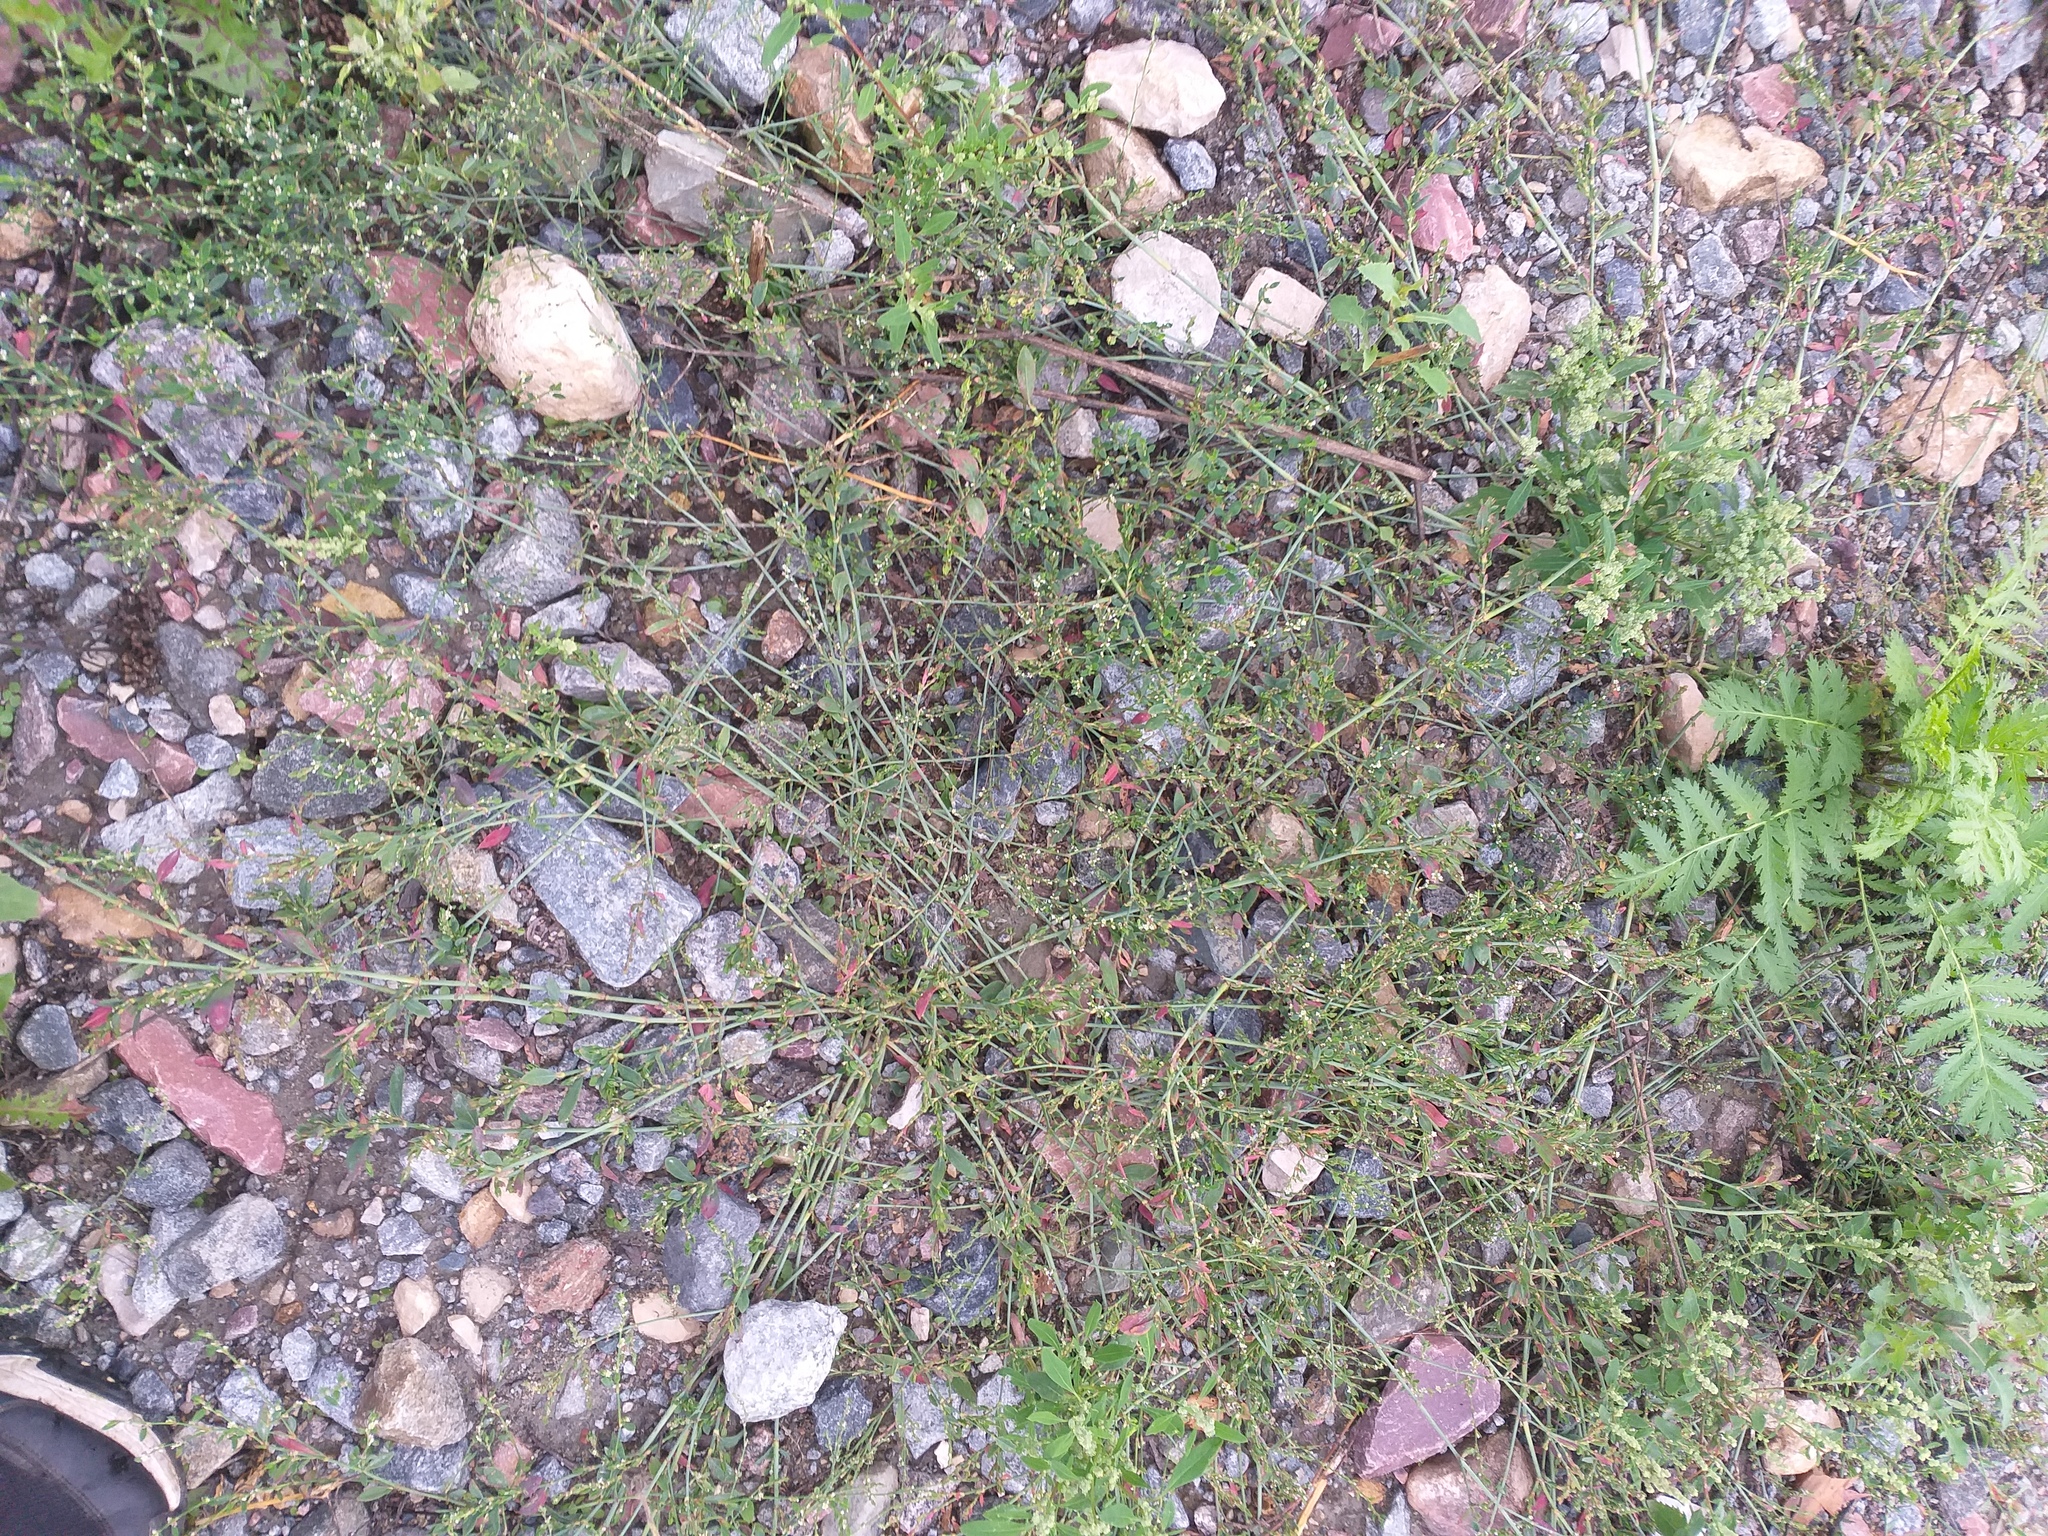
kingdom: Plantae
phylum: Tracheophyta
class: Magnoliopsida
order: Caryophyllales
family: Polygonaceae
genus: Polygonum
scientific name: Polygonum
